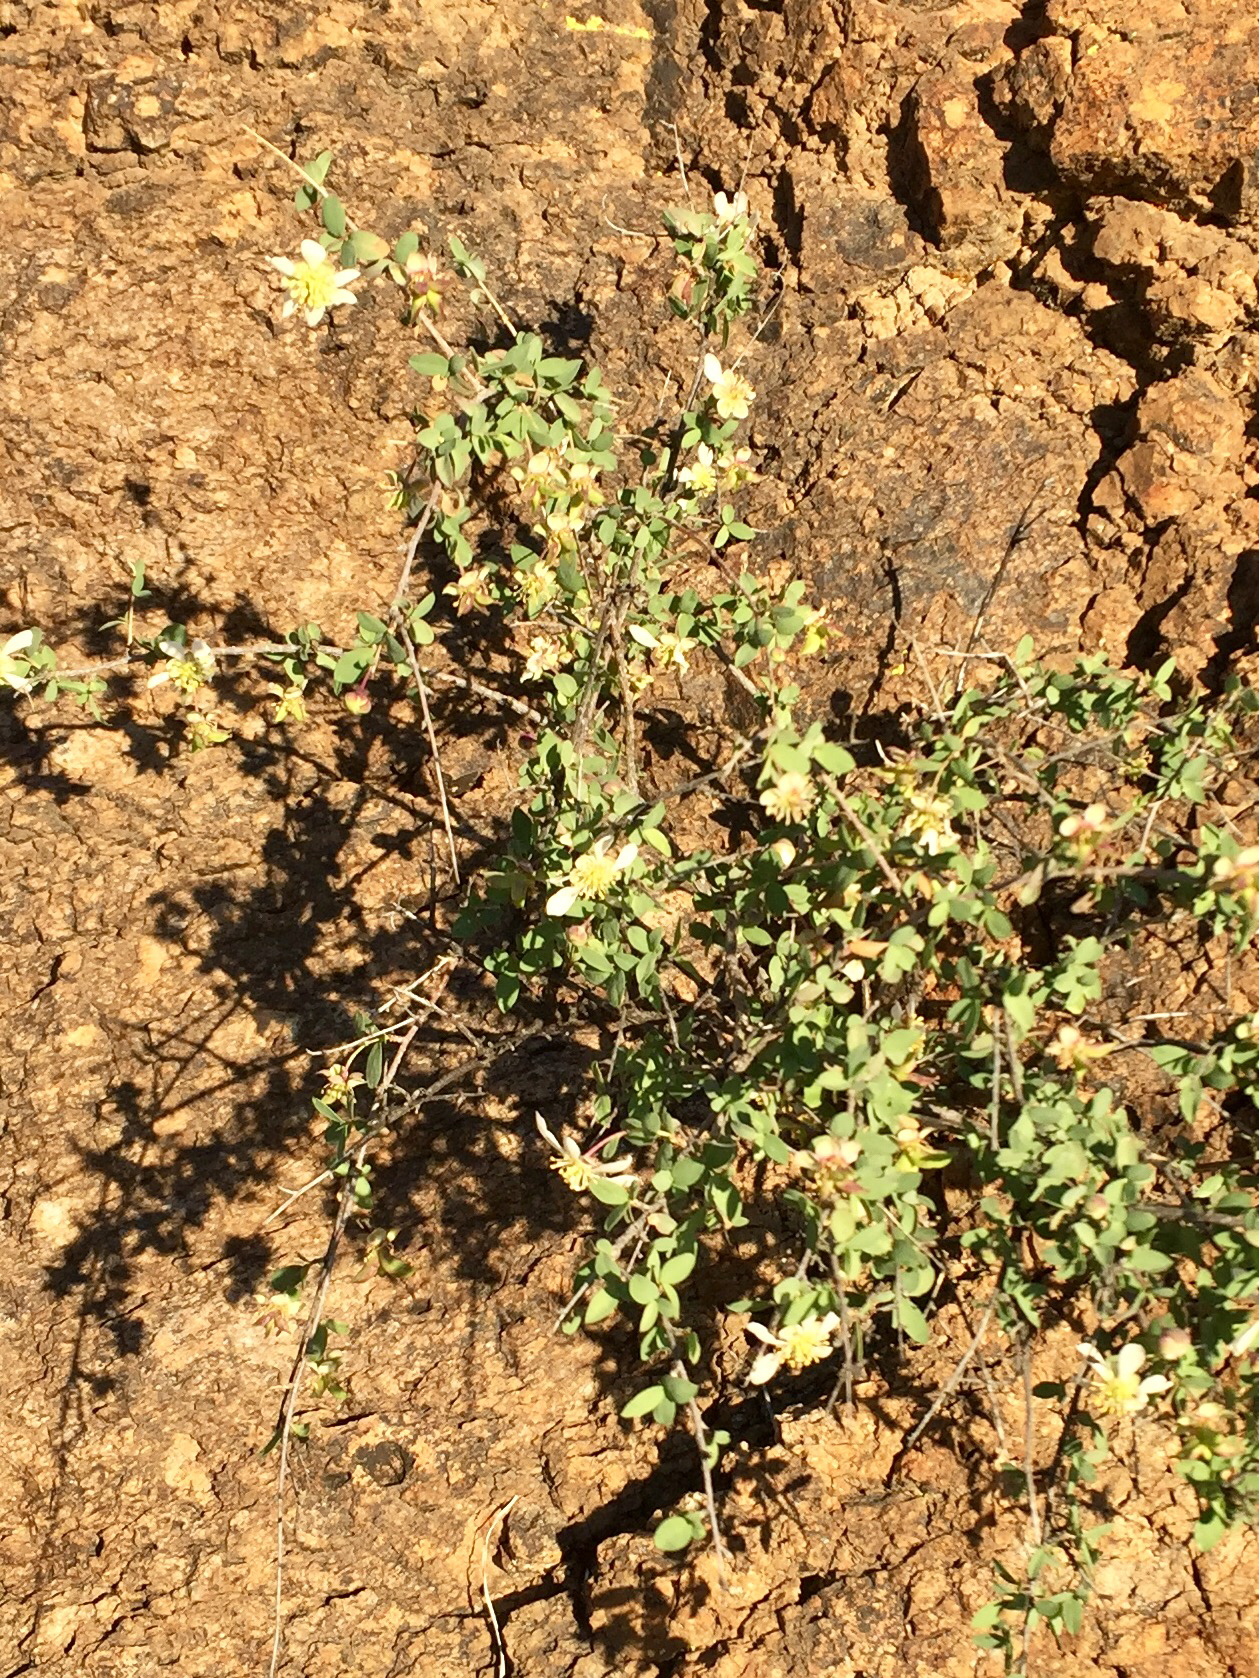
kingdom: Plantae
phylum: Tracheophyta
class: Magnoliopsida
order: Crossosomatales
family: Crossosomataceae
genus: Crossosoma
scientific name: Crossosoma bigelovii
